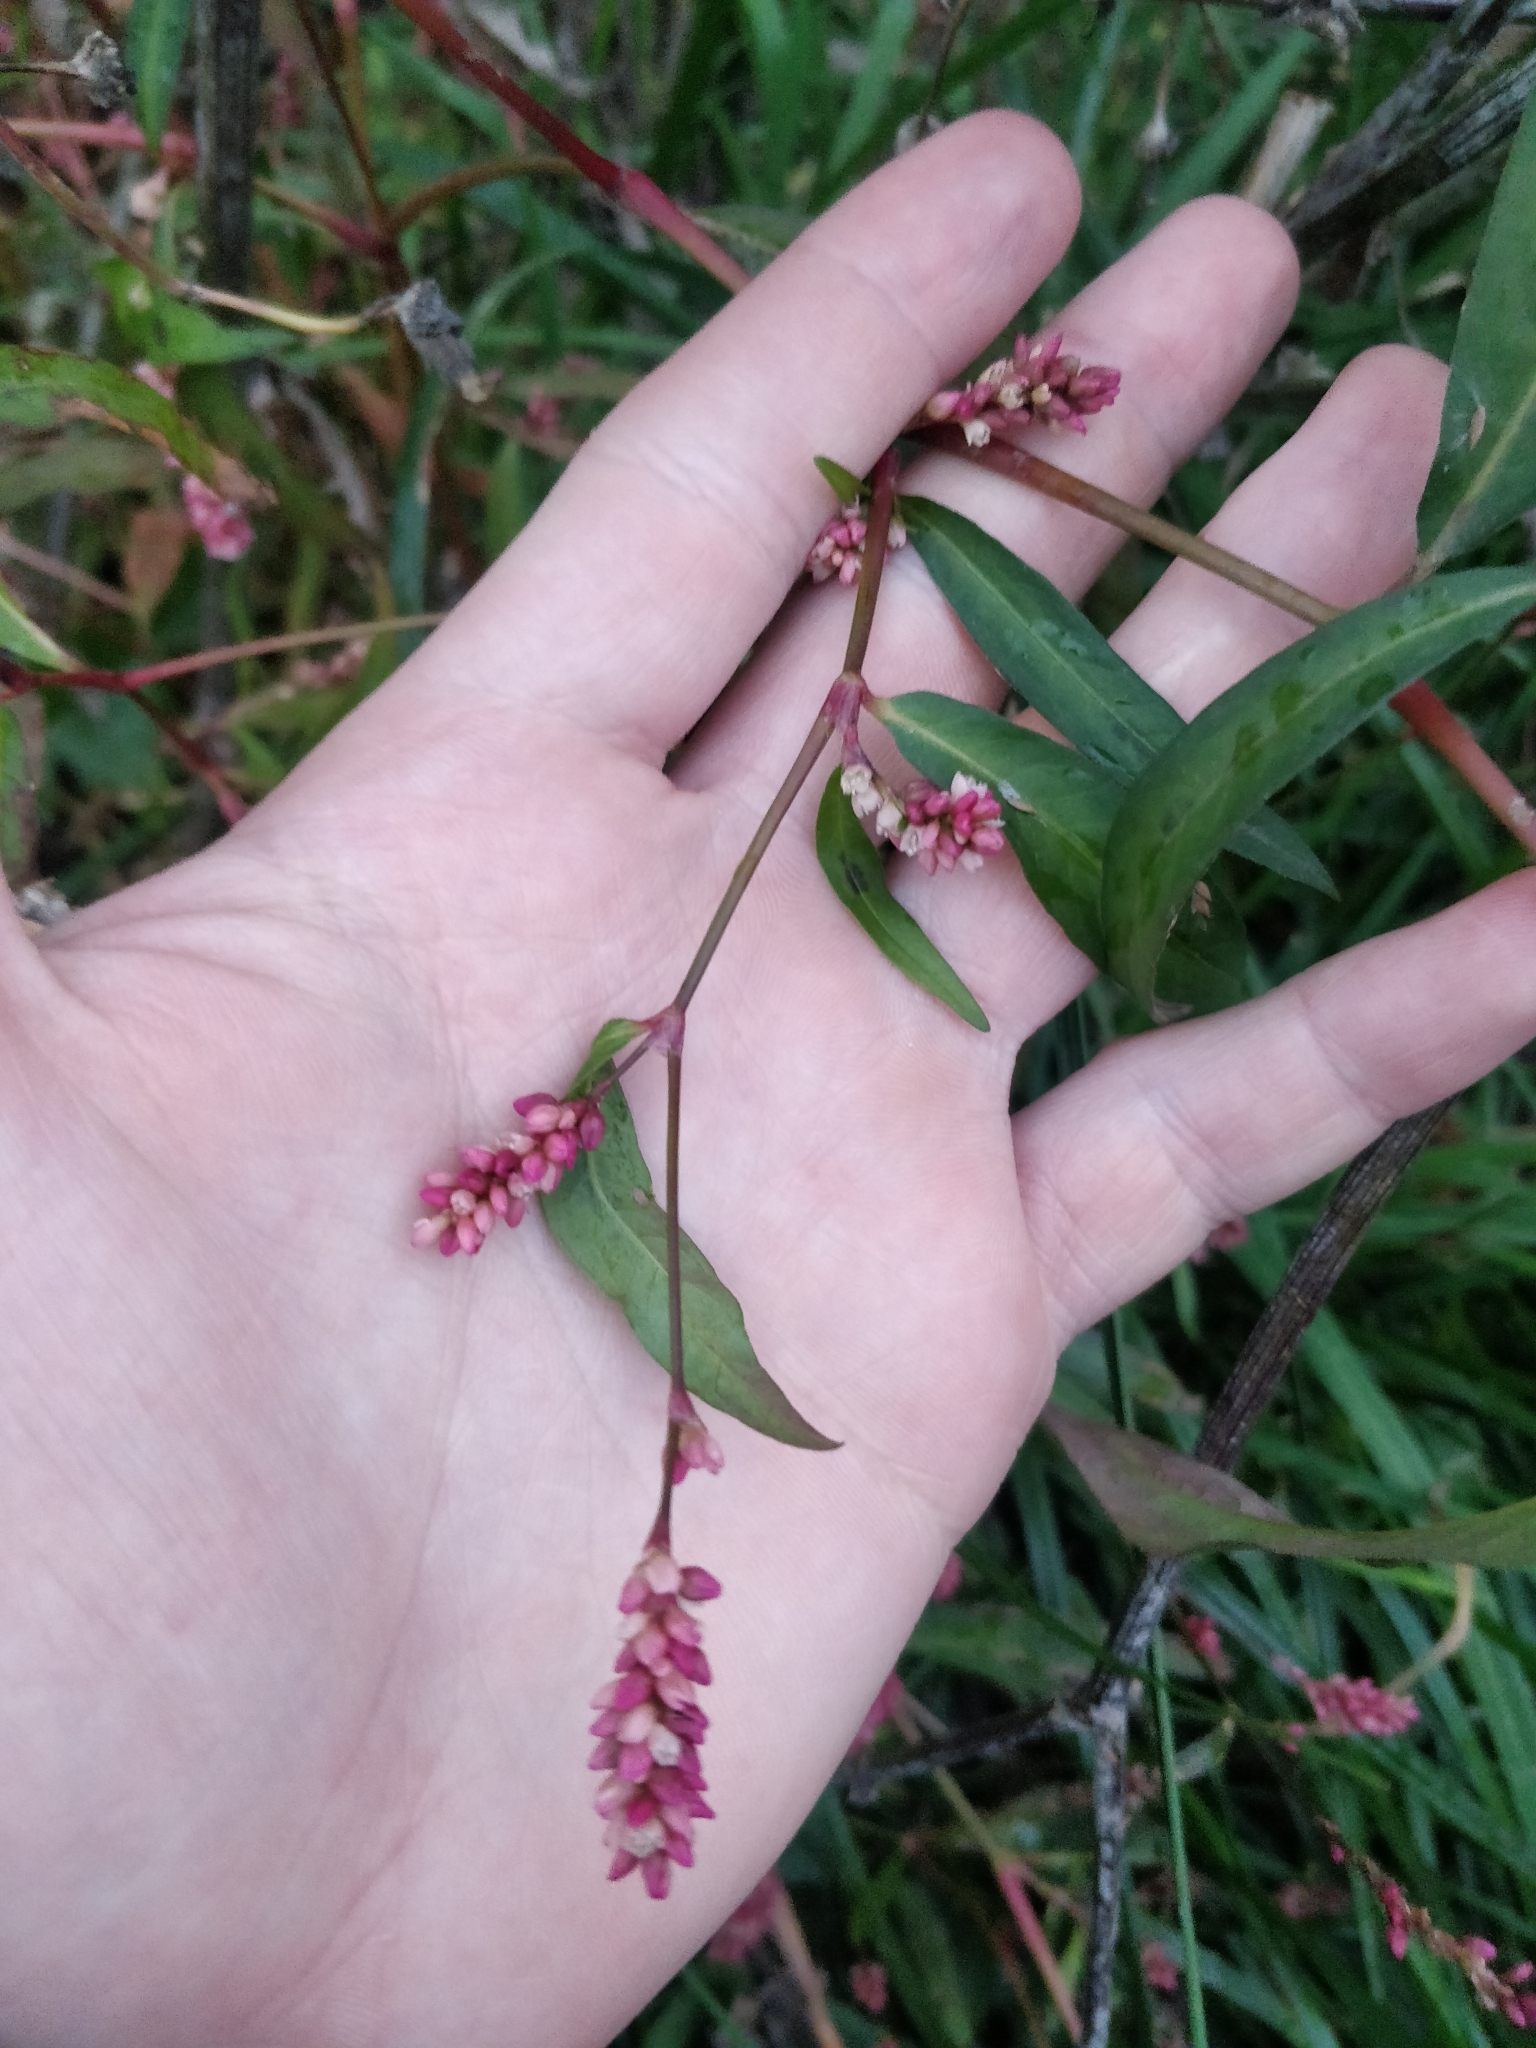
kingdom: Plantae
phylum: Tracheophyta
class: Magnoliopsida
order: Caryophyllales
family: Polygonaceae
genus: Persicaria
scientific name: Persicaria maculosa
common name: Redshank
